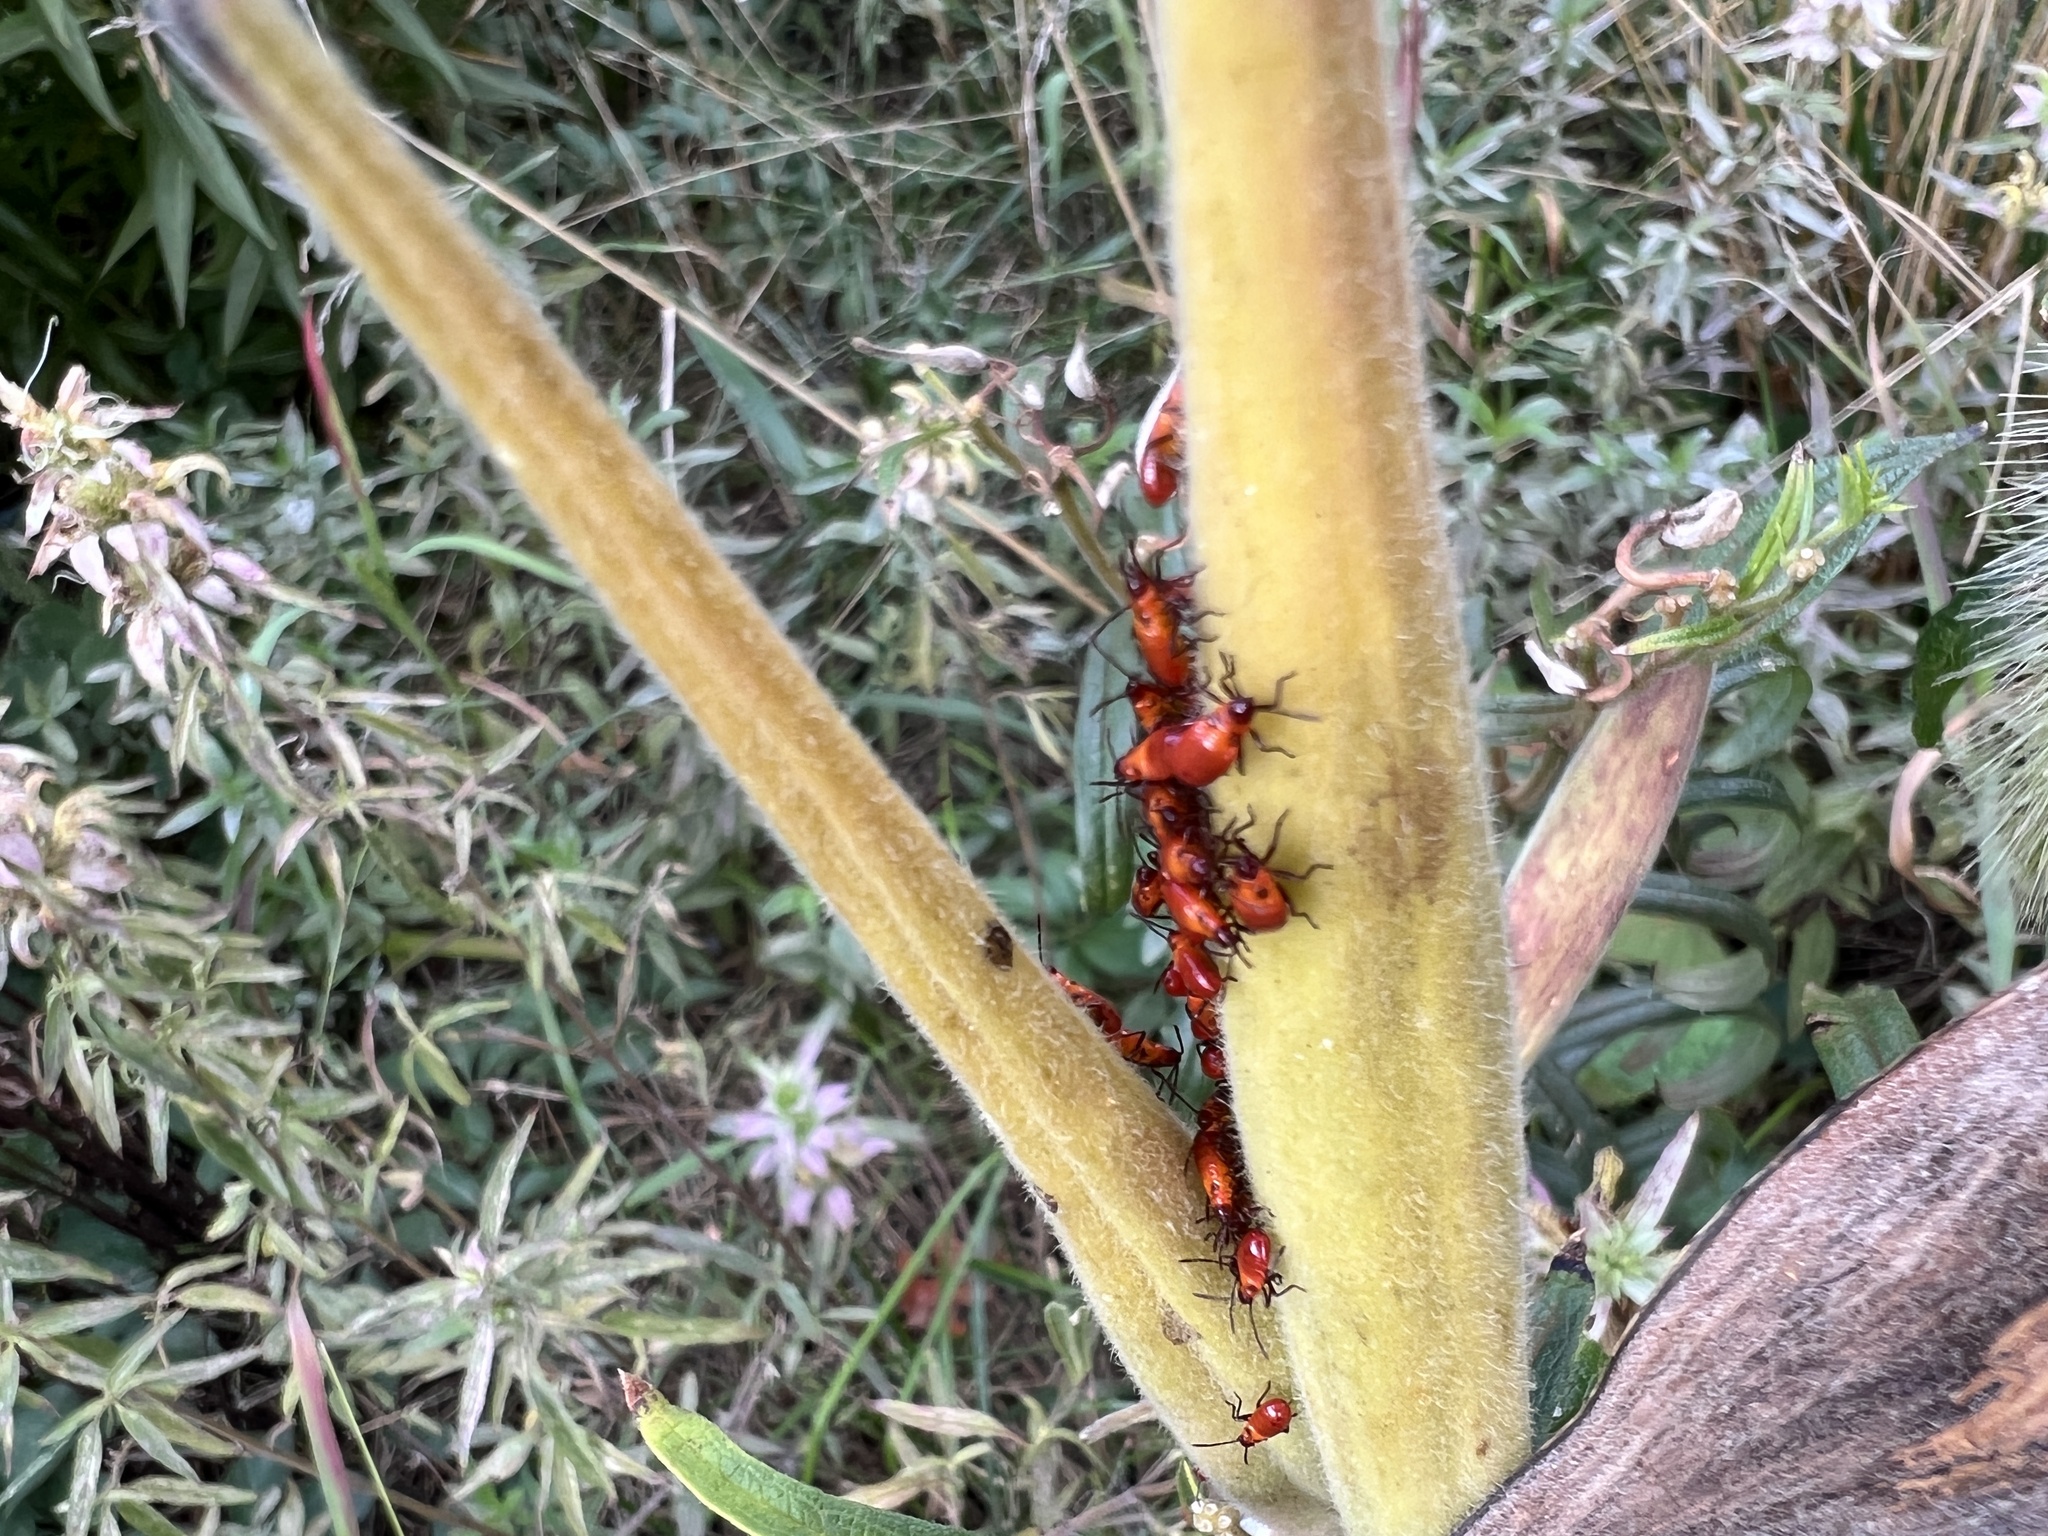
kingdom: Animalia
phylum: Arthropoda
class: Insecta
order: Hemiptera
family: Lygaeidae
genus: Oncopeltus
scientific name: Oncopeltus fasciatus
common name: Large milkweed bug
